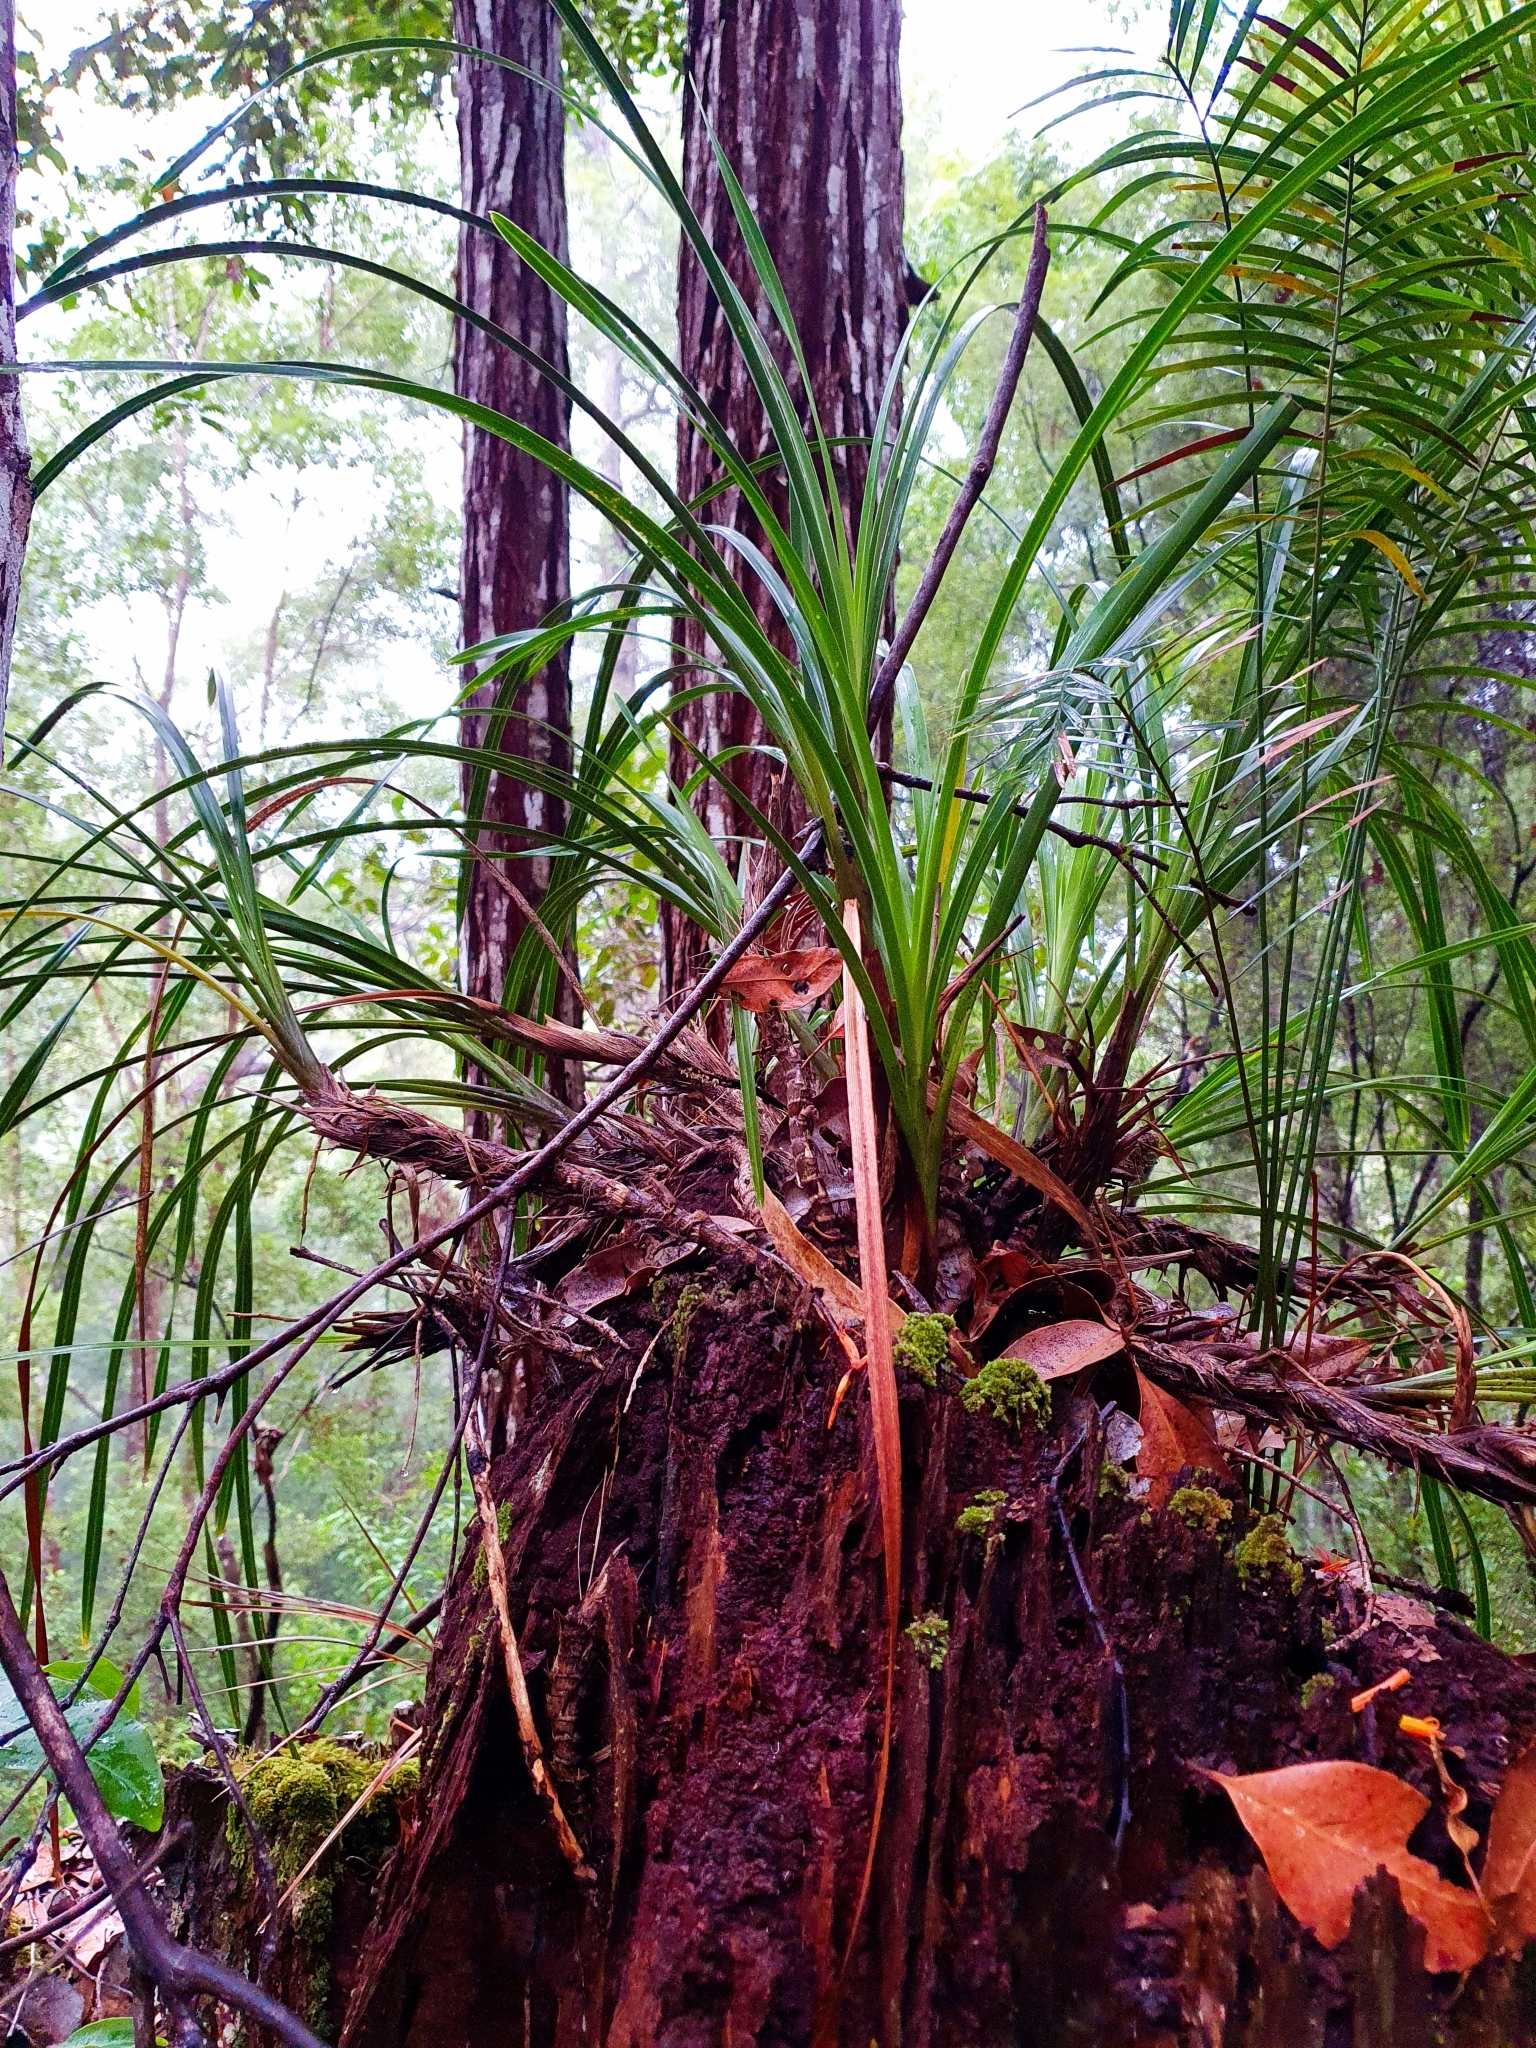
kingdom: Plantae
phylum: Tracheophyta
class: Liliopsida
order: Asparagales
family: Orchidaceae
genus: Cymbidium
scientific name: Cymbidium suave
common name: Snake orchid
